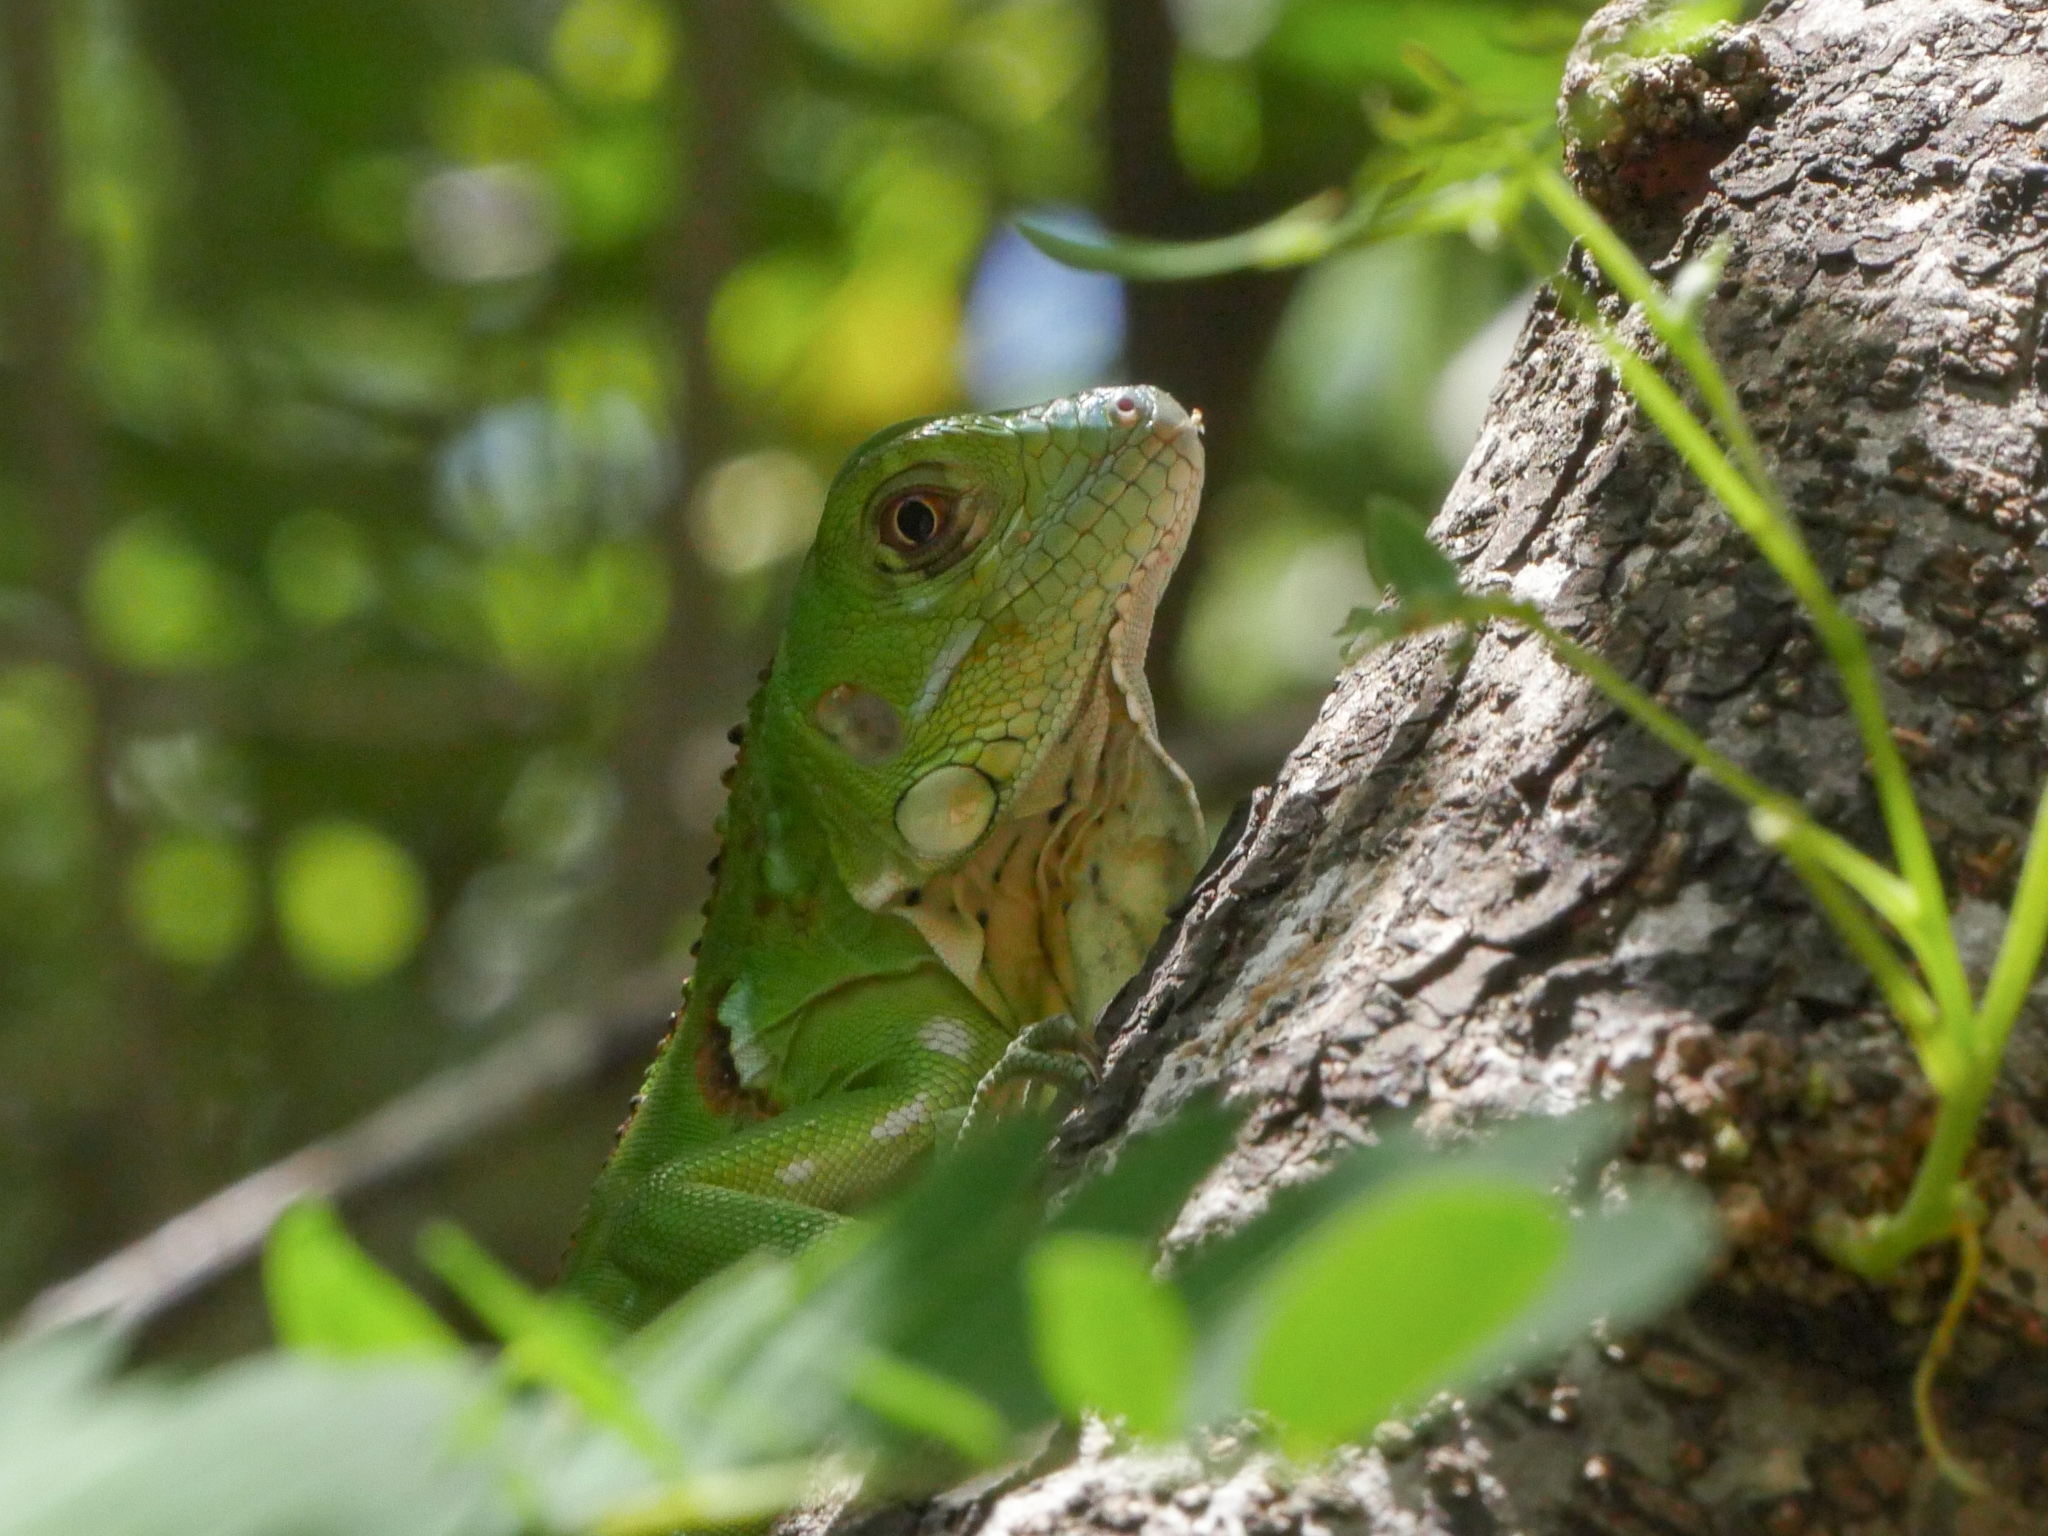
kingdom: Animalia
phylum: Chordata
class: Squamata
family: Iguanidae
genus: Iguana
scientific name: Iguana iguana
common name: Green iguana
